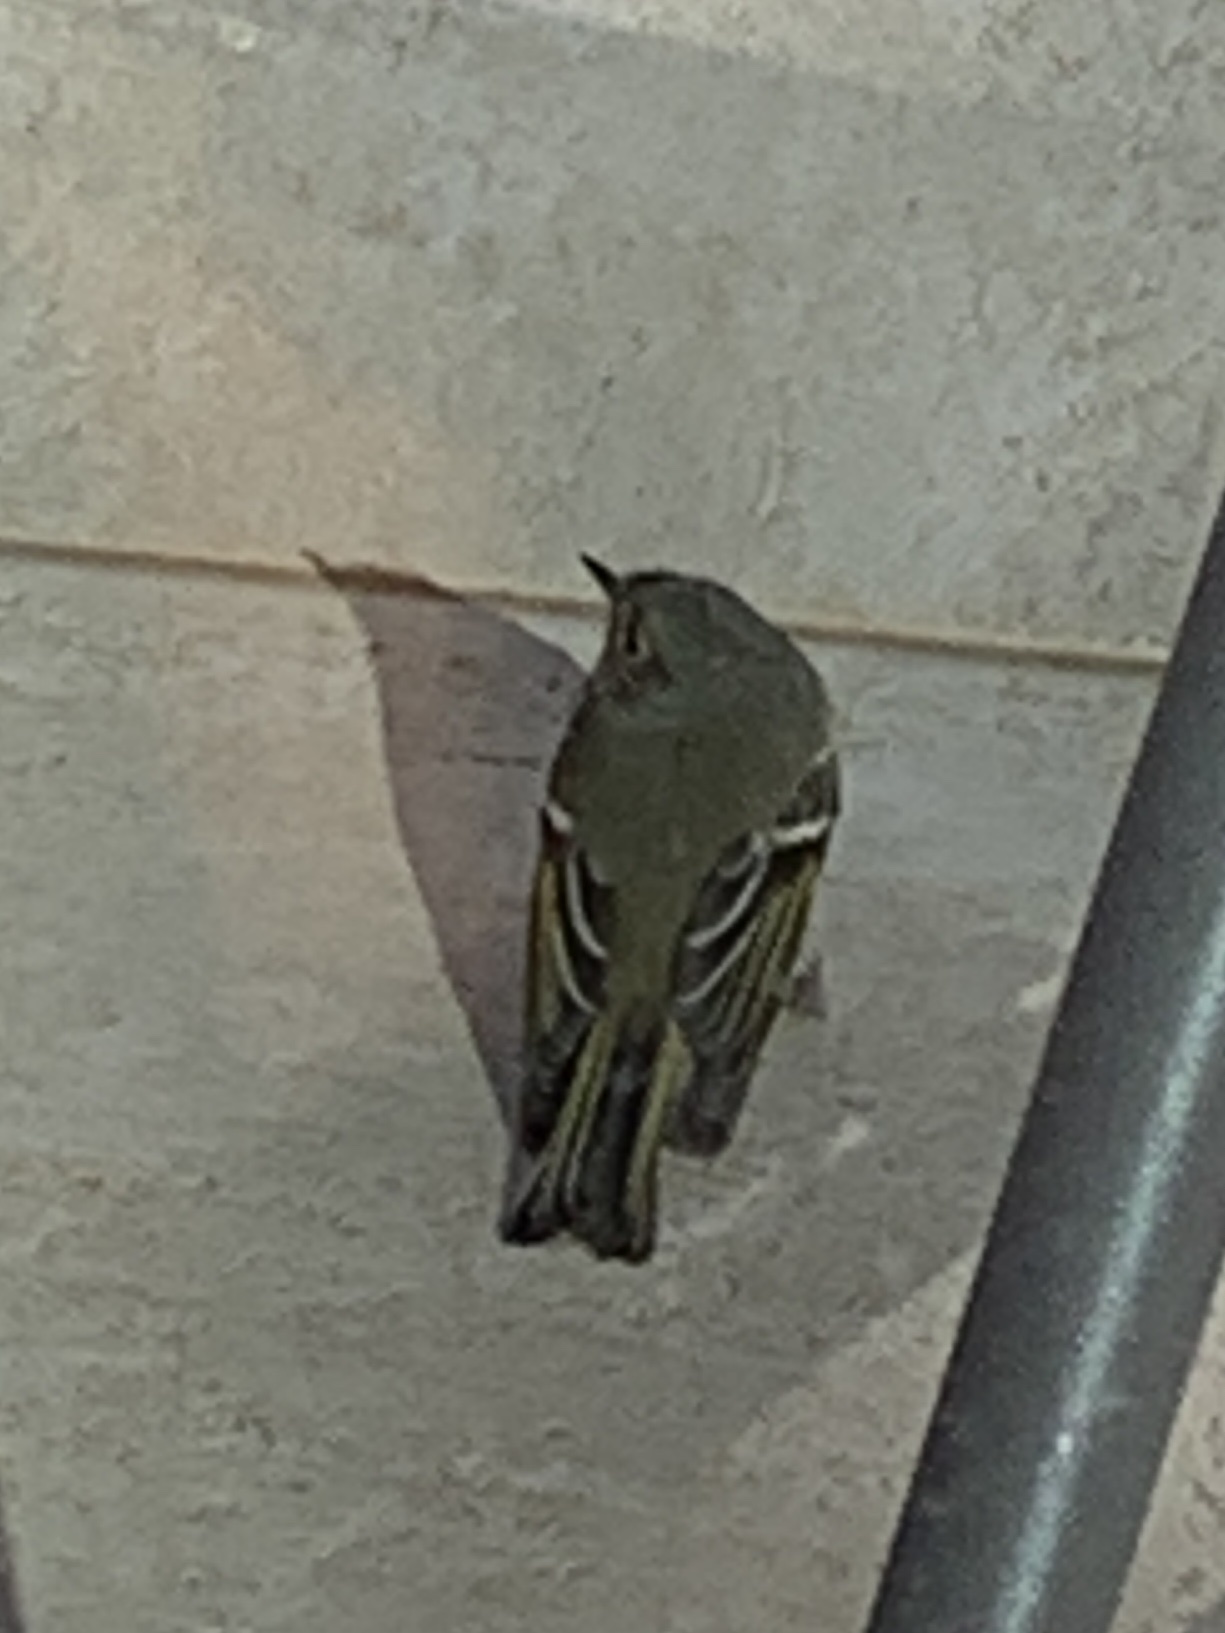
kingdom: Animalia
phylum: Chordata
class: Aves
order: Passeriformes
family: Regulidae
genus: Regulus
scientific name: Regulus calendula
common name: Ruby-crowned kinglet
